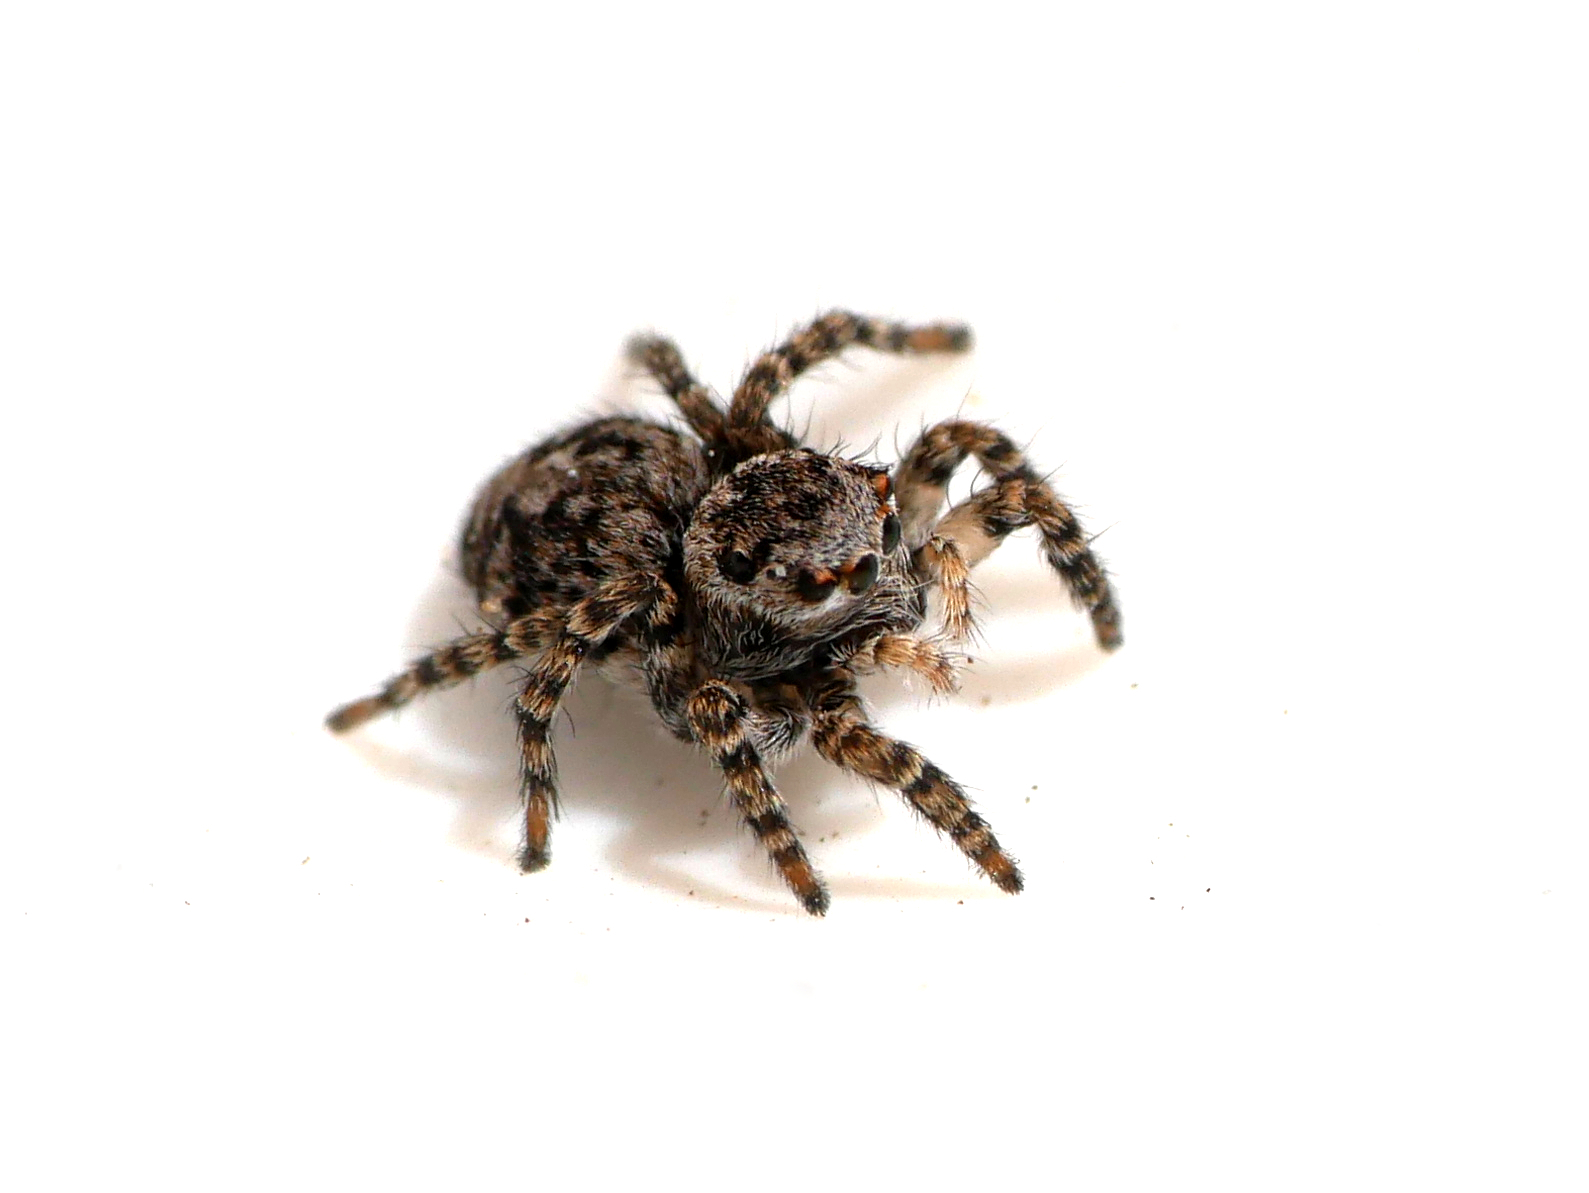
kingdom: Animalia
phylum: Arthropoda
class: Arachnida
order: Araneae
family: Salticidae
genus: Aelurillus
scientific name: Aelurillus v-insignitus
